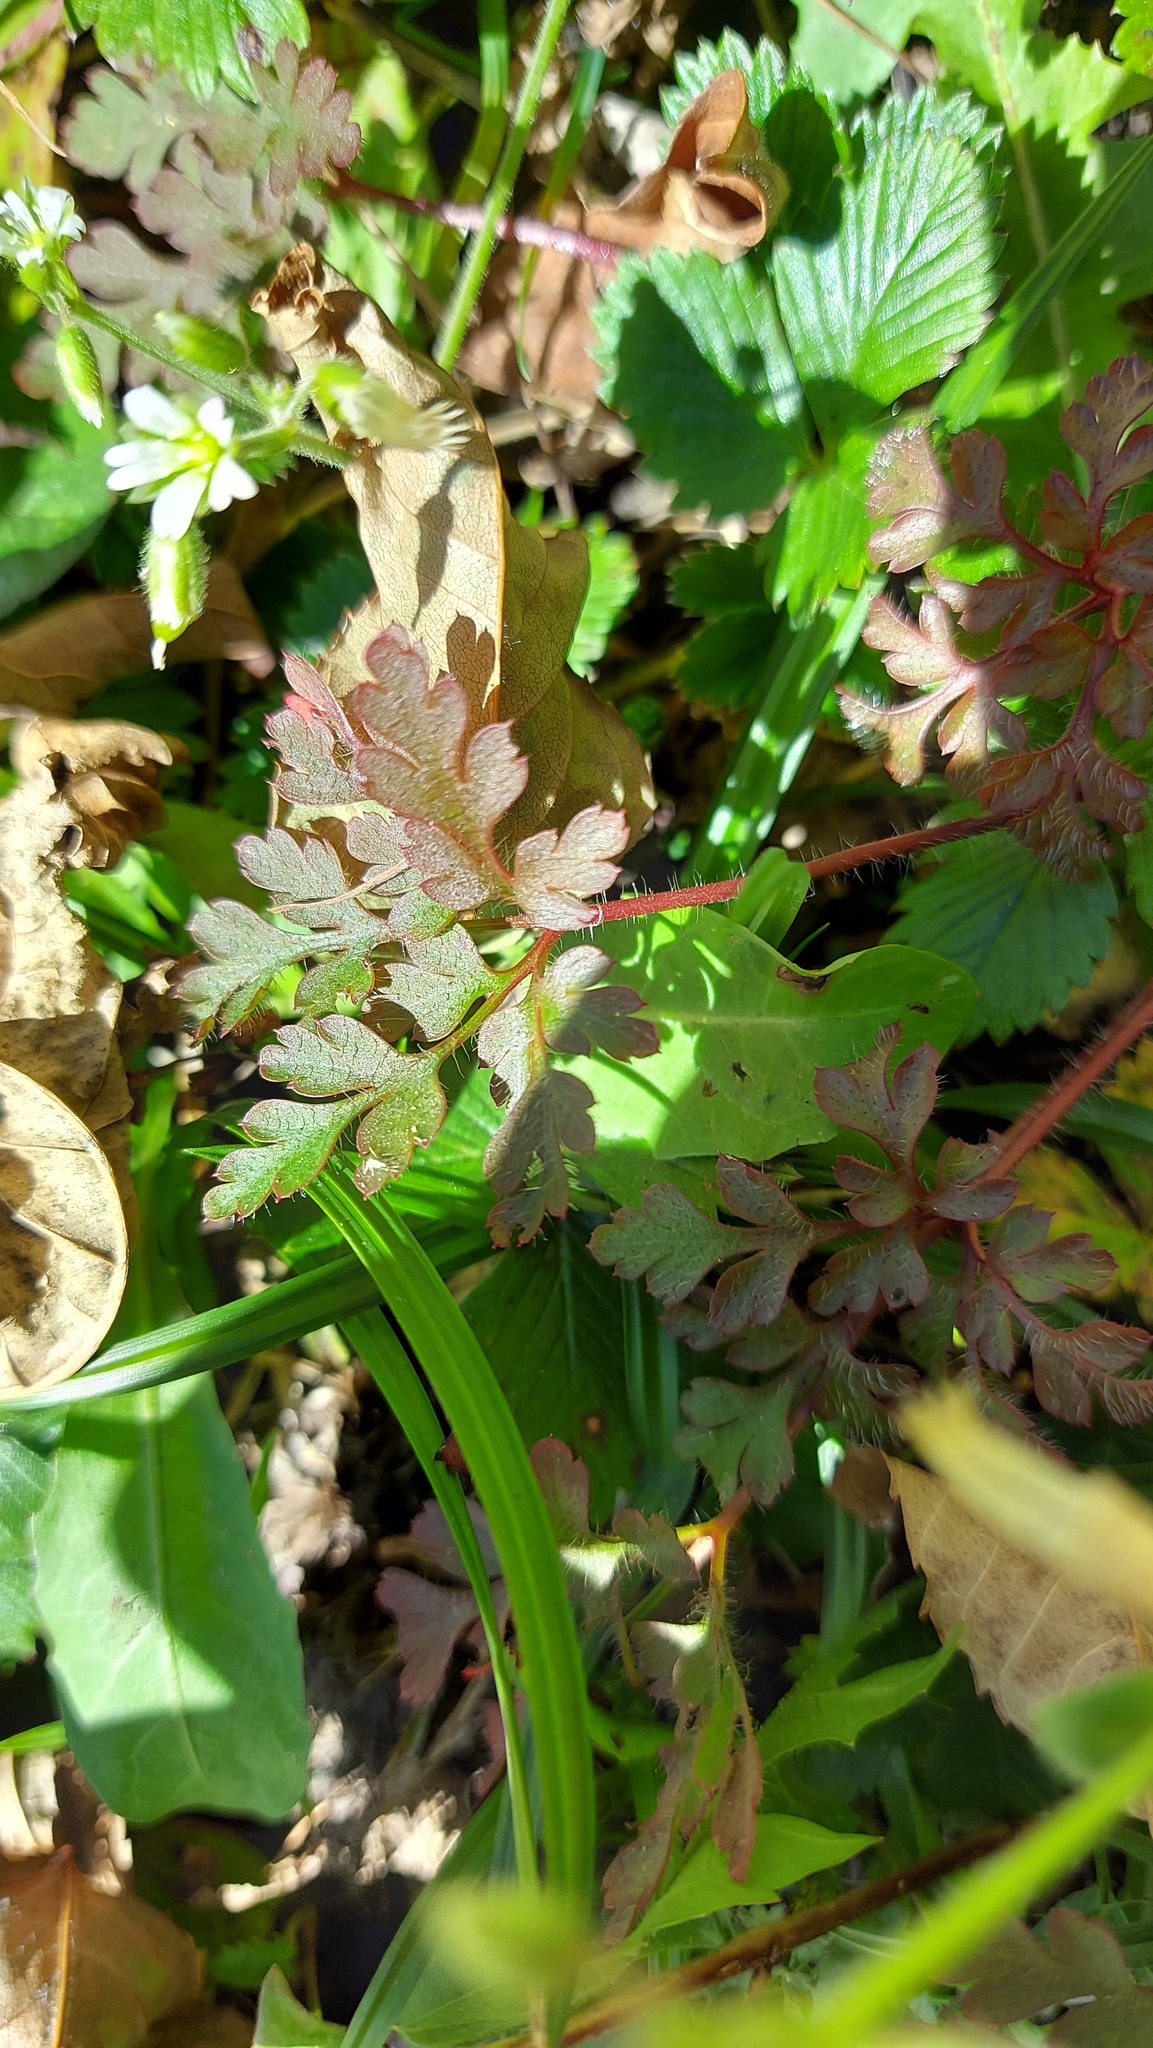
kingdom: Plantae
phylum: Tracheophyta
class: Magnoliopsida
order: Geraniales
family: Geraniaceae
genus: Geranium
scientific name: Geranium robertianum
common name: Herb-robert
